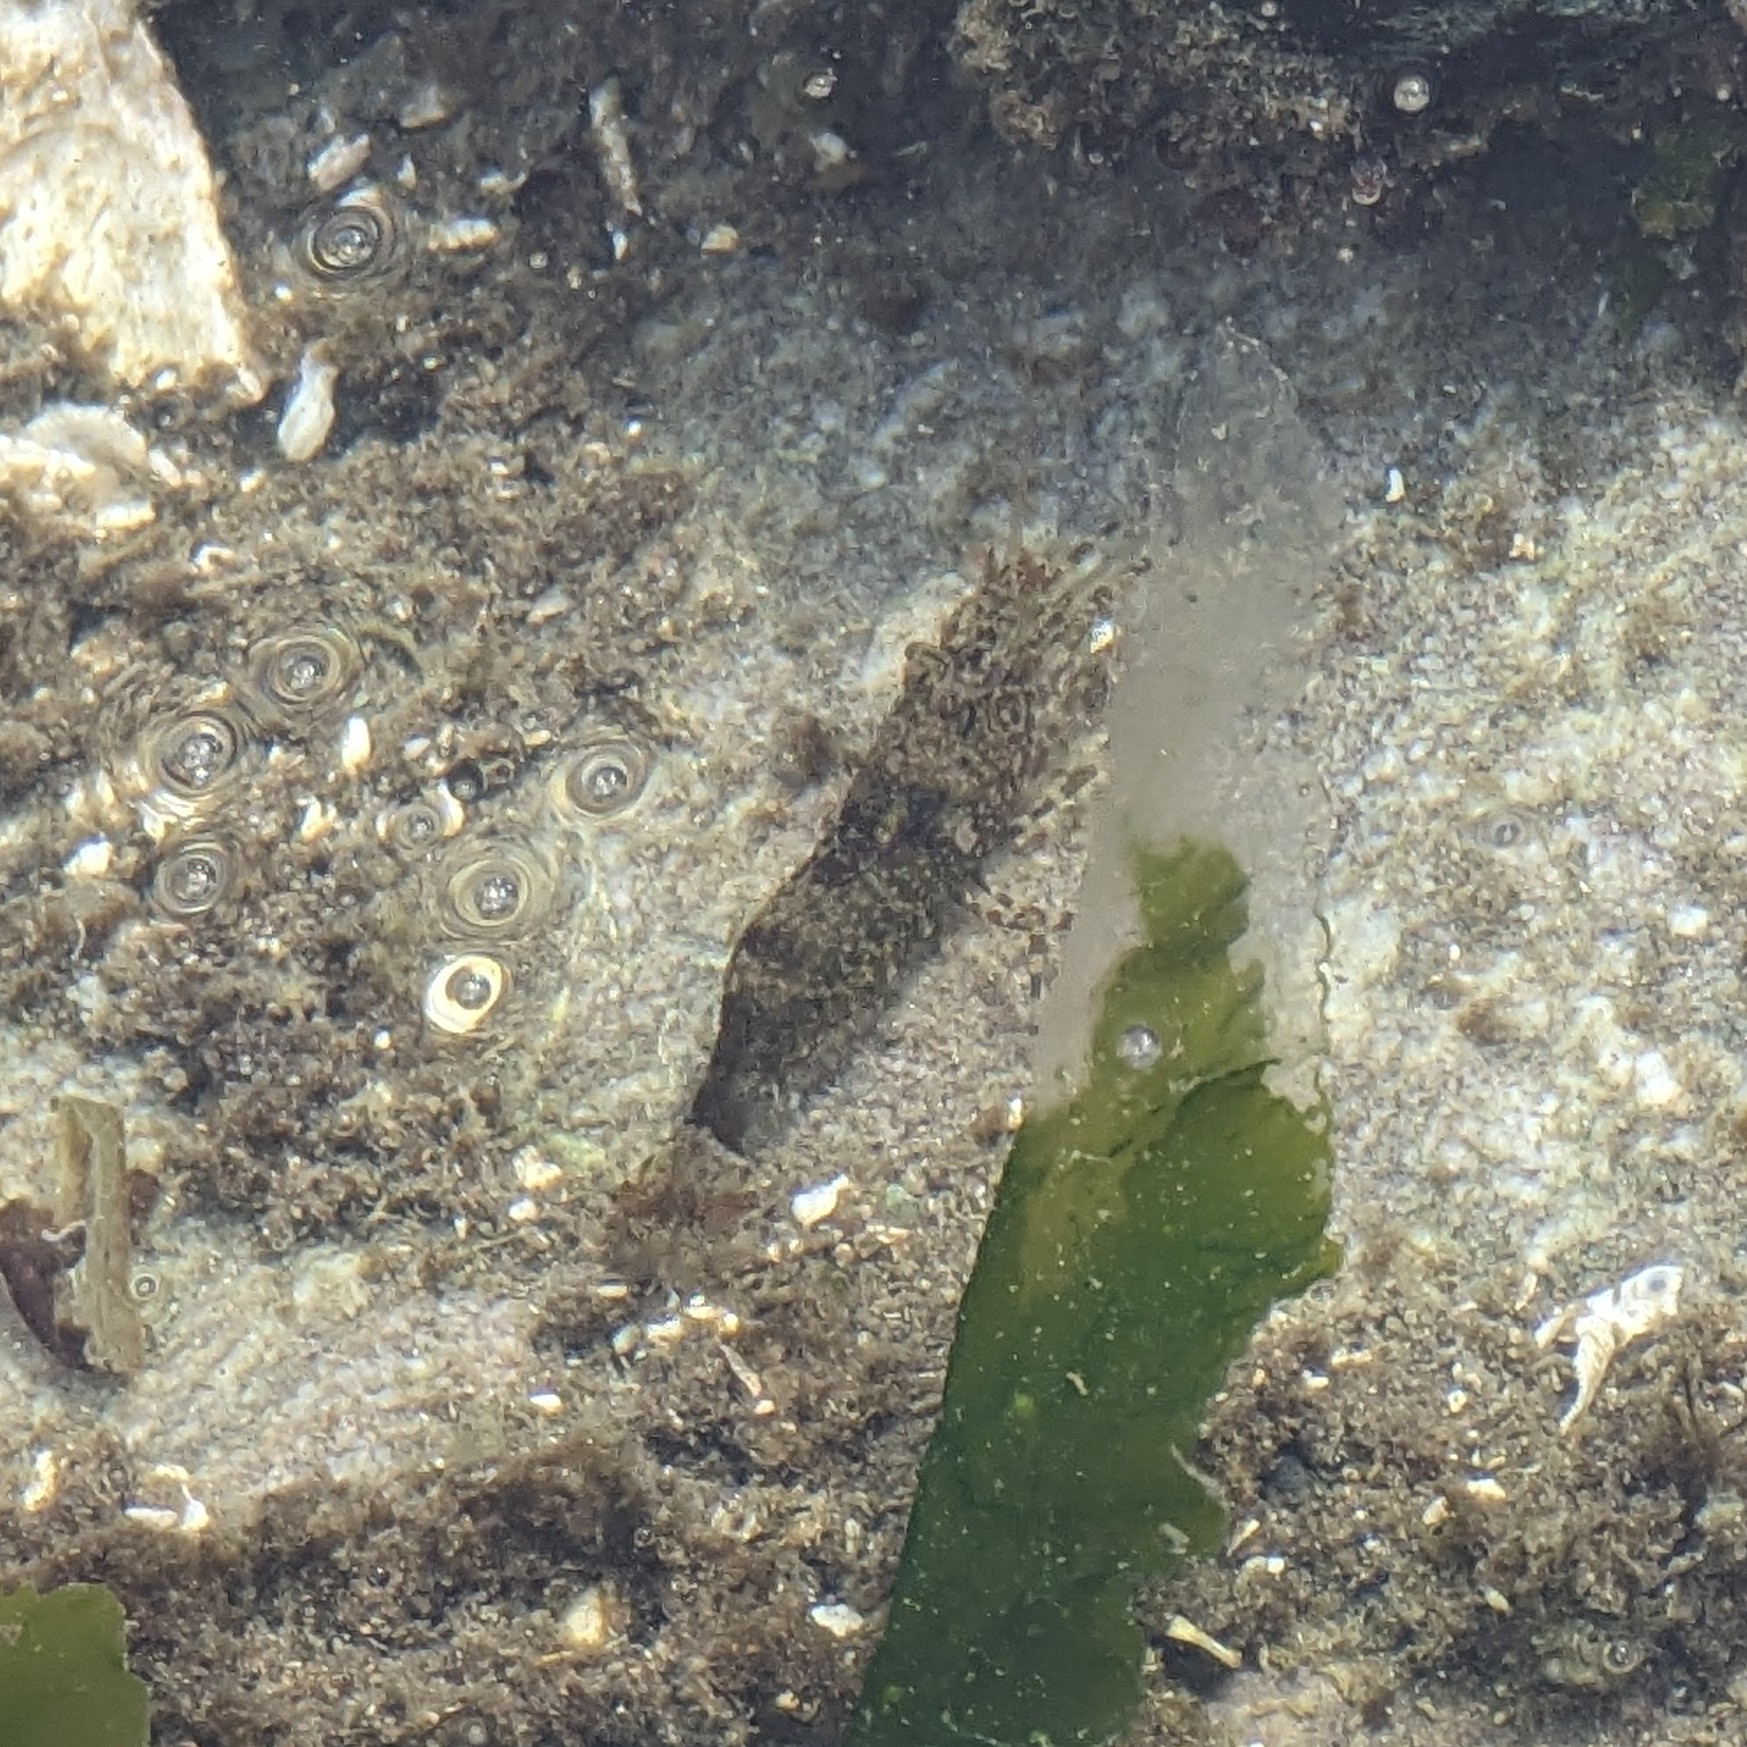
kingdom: Animalia
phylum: Arthropoda
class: Malacostraca
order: Decapoda
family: Thoridae
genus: Heptacarpus
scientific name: Heptacarpus brevirostris
